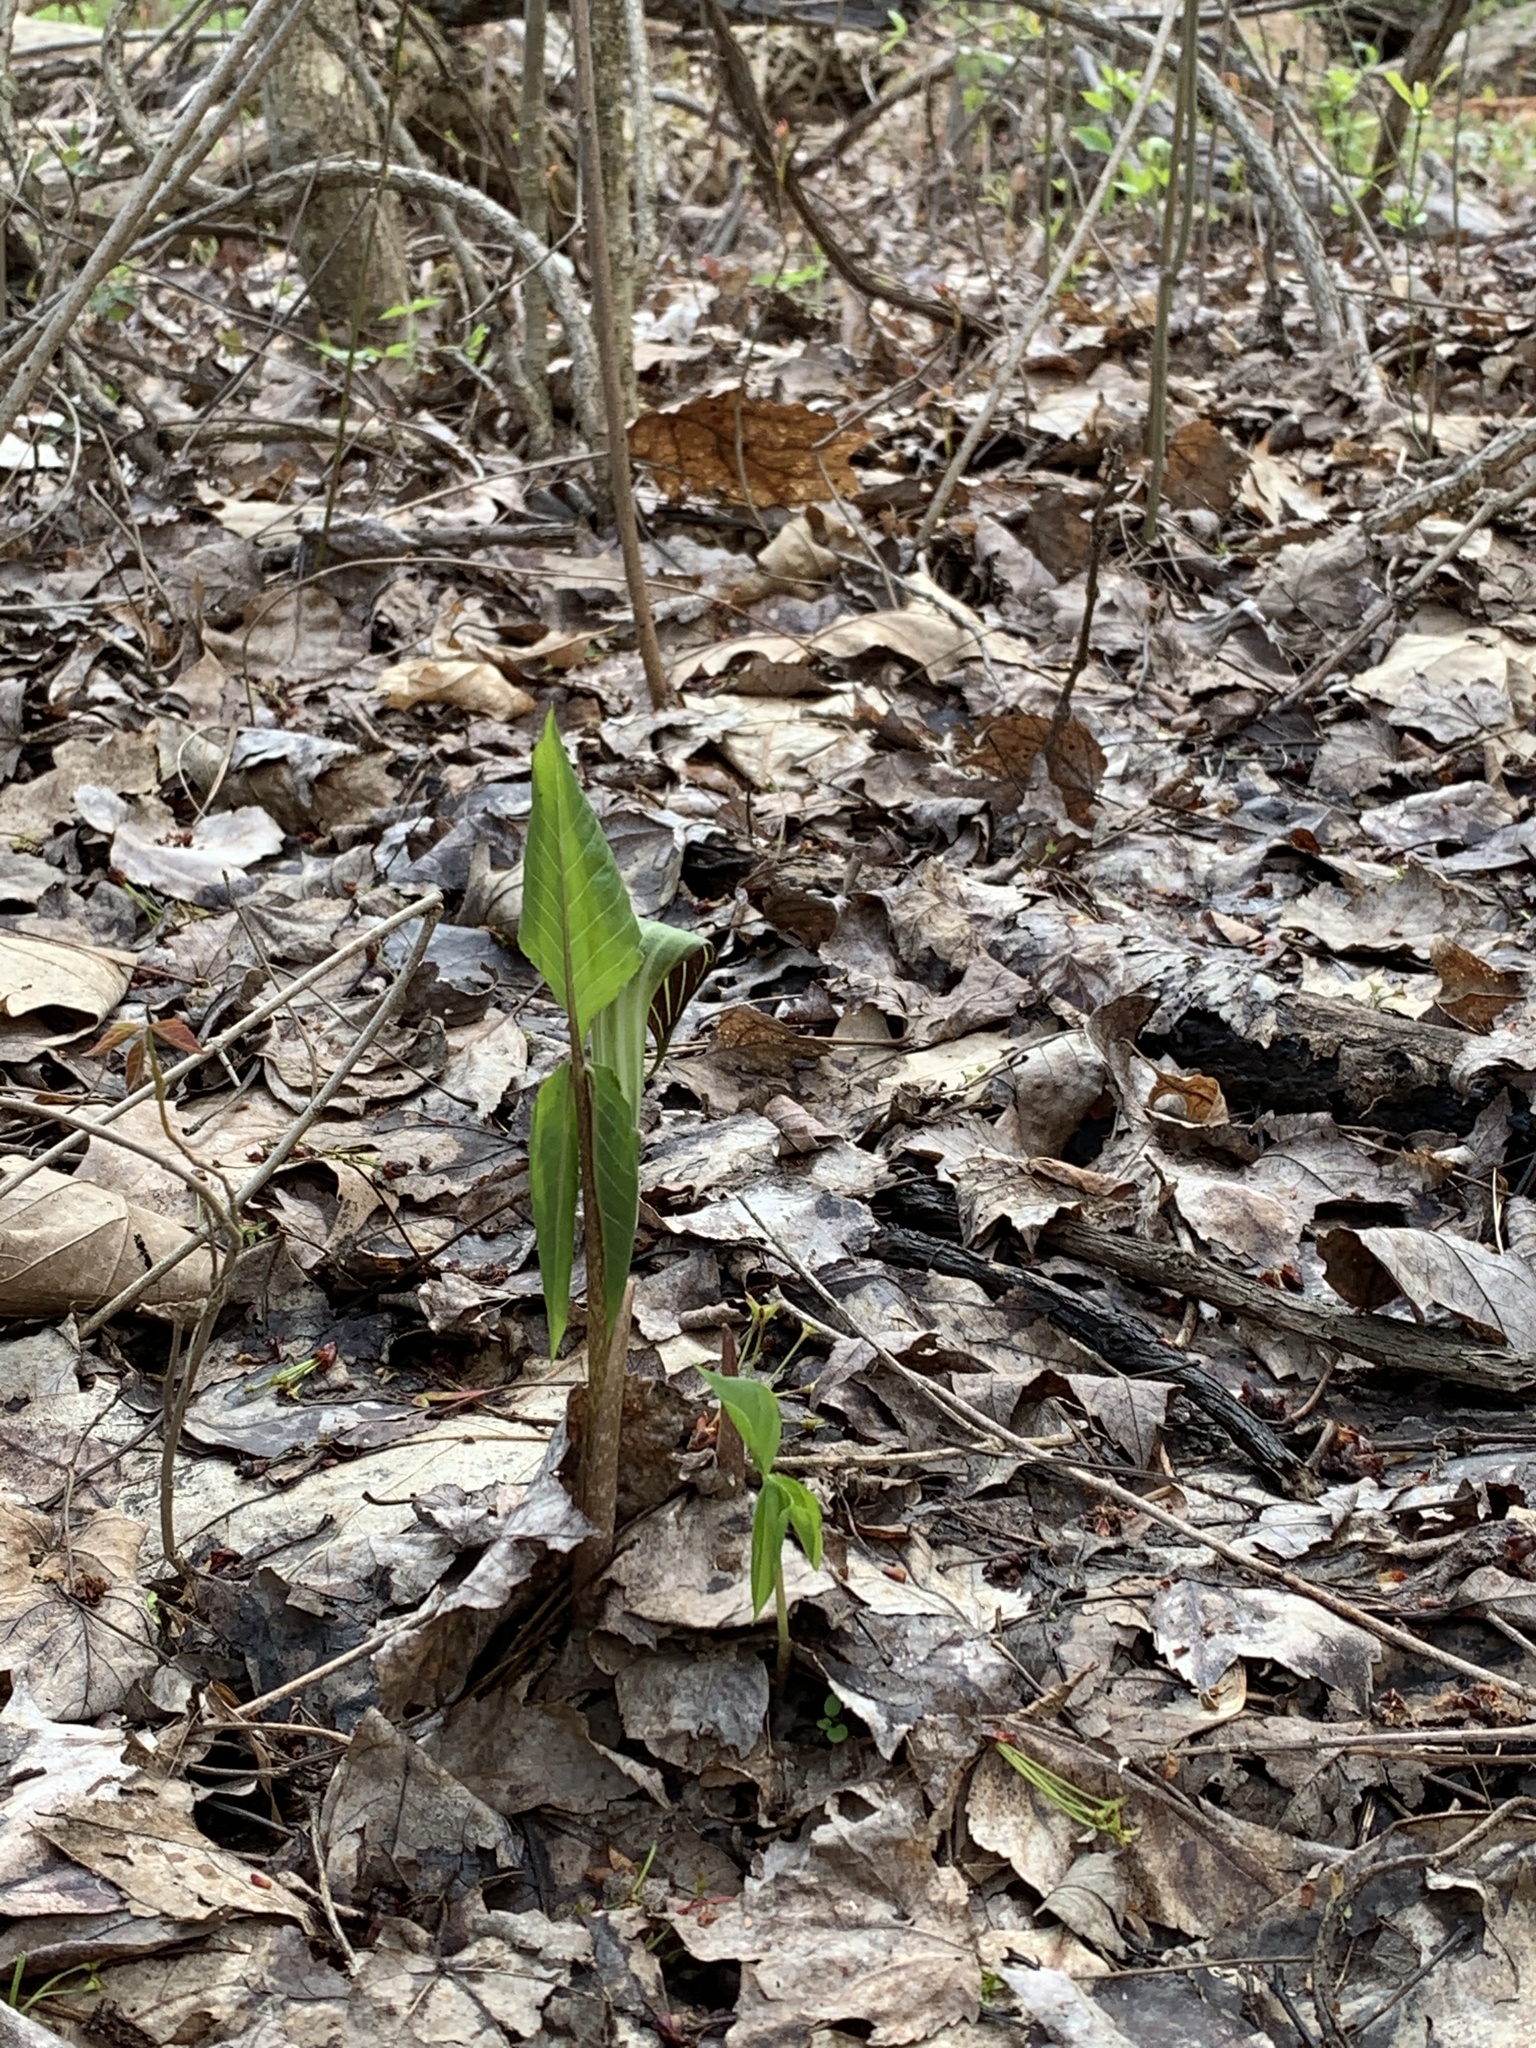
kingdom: Plantae
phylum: Tracheophyta
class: Liliopsida
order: Alismatales
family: Araceae
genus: Arisaema
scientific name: Arisaema triphyllum
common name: Jack-in-the-pulpit
